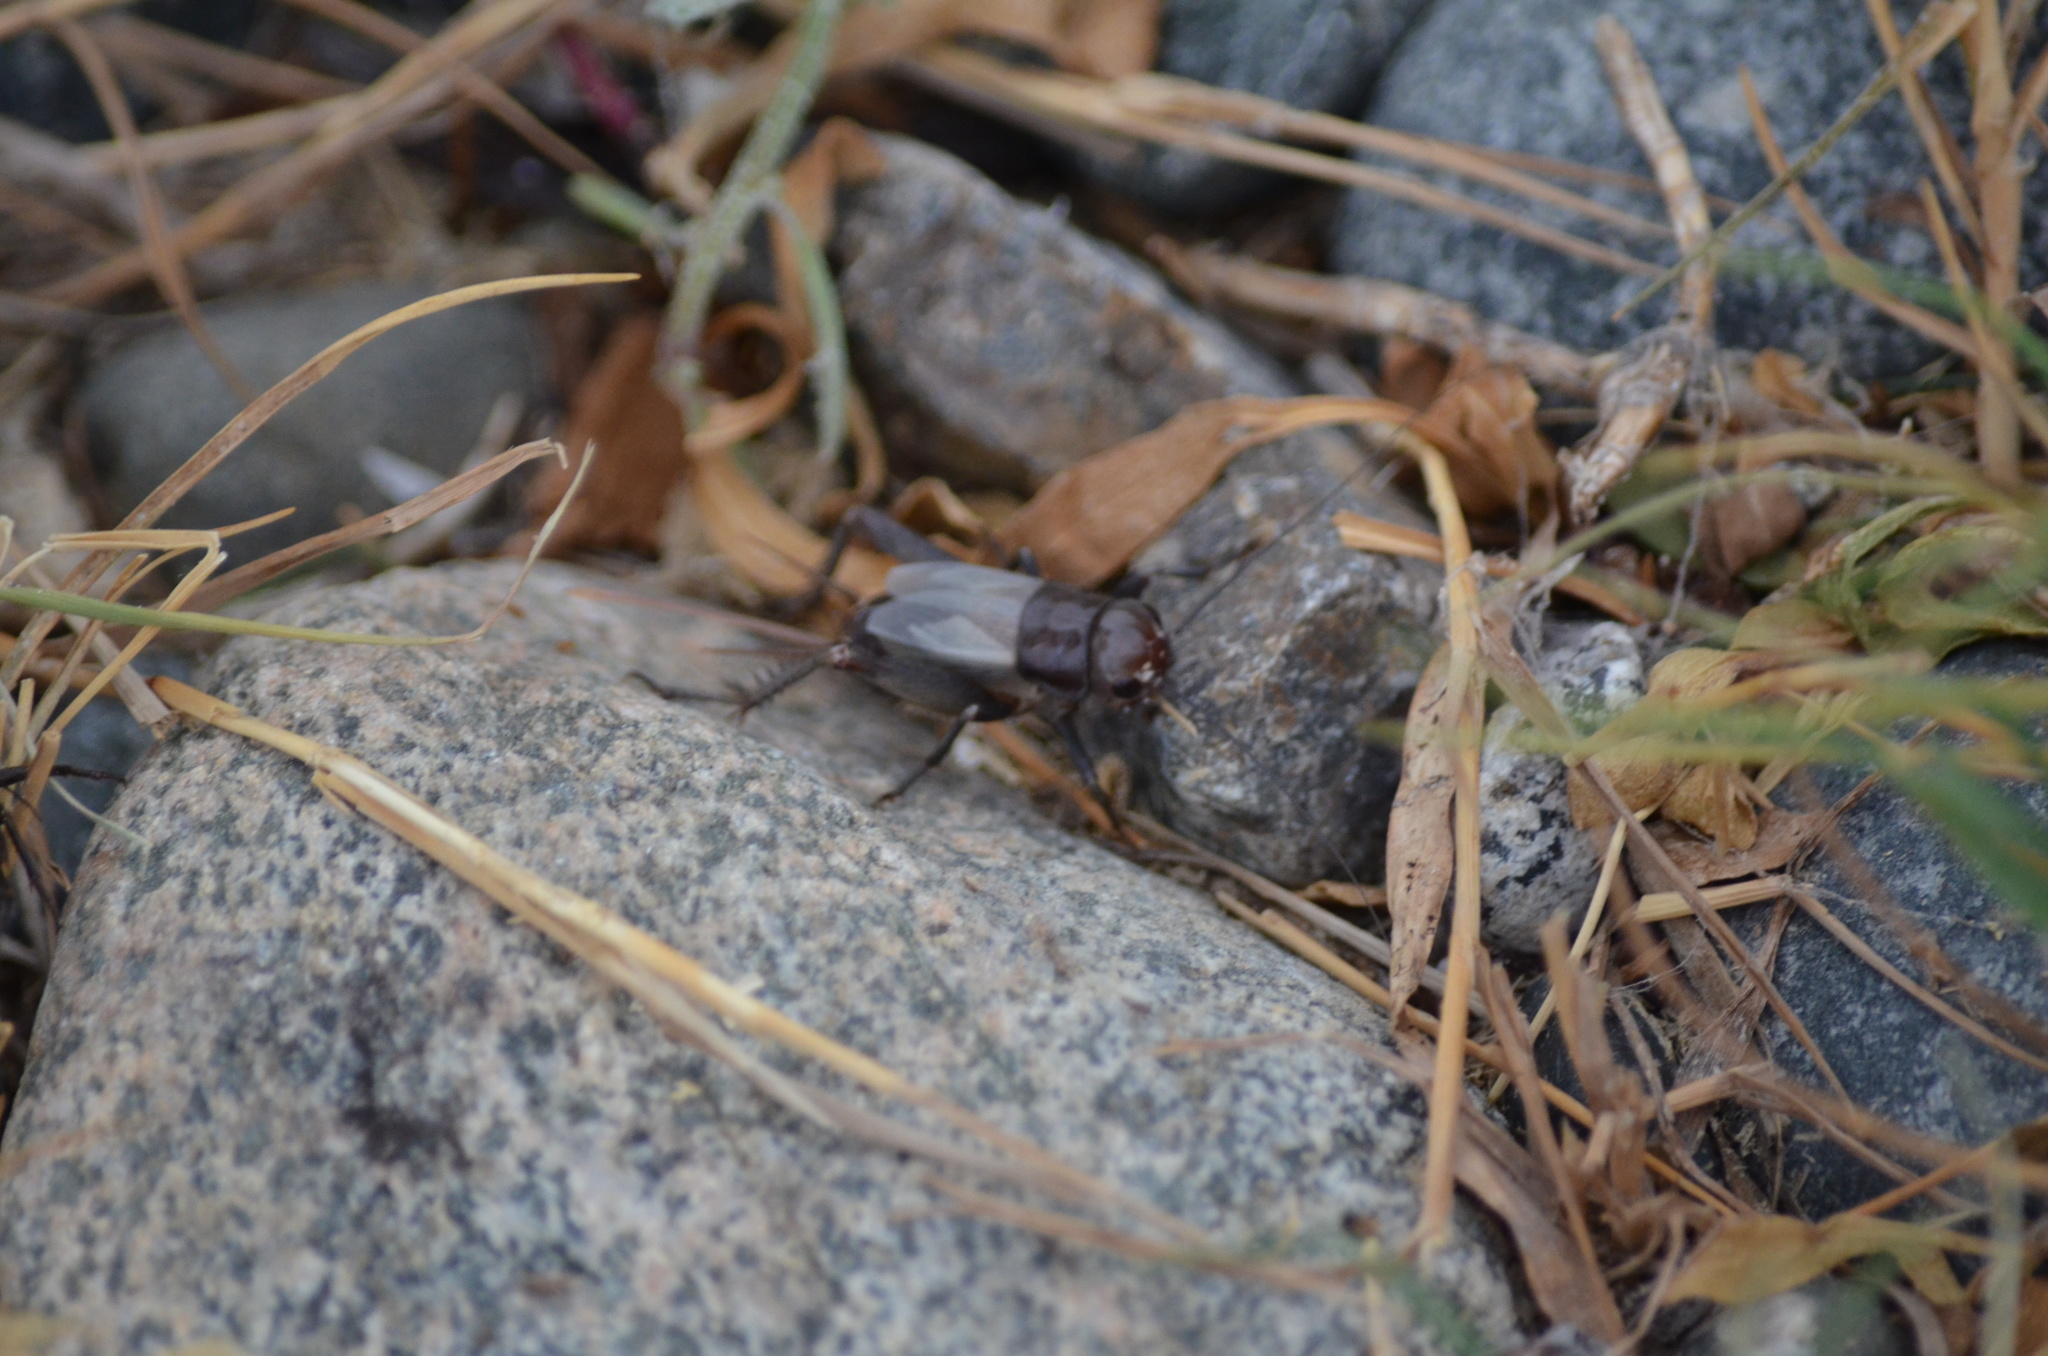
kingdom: Animalia
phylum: Arthropoda
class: Insecta
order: Orthoptera
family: Gryllidae
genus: Gryllus
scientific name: Gryllus pennsylvanicus
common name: Fall field cricket
